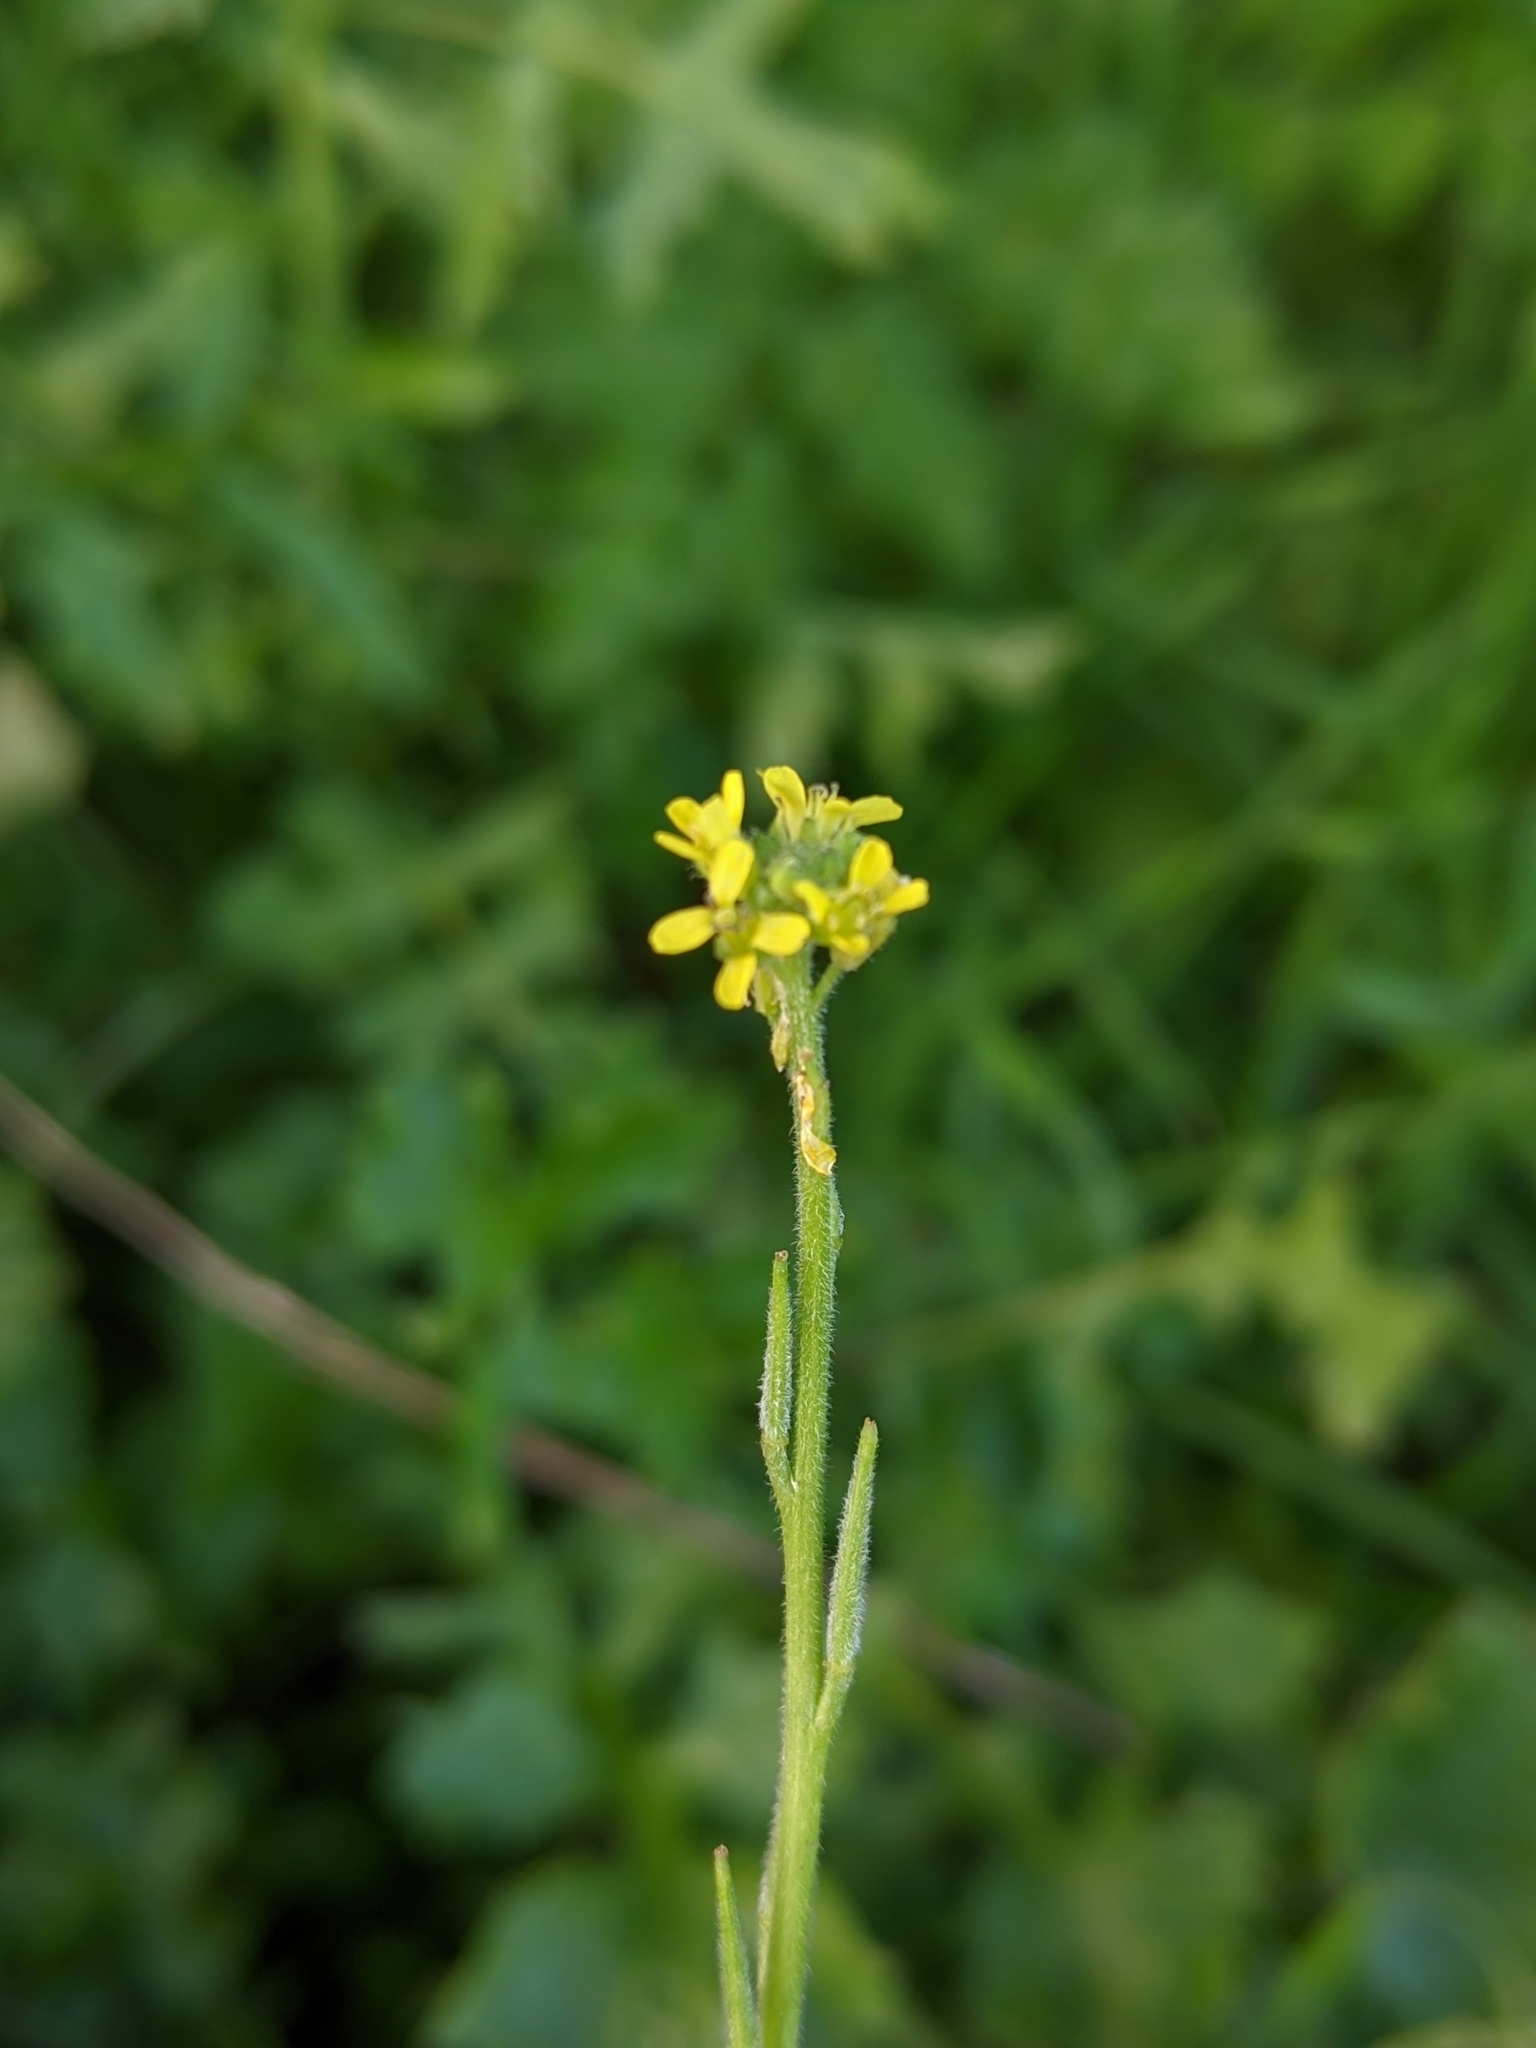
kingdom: Plantae
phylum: Tracheophyta
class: Magnoliopsida
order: Brassicales
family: Brassicaceae
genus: Sisymbrium
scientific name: Sisymbrium officinale
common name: Hedge mustard
